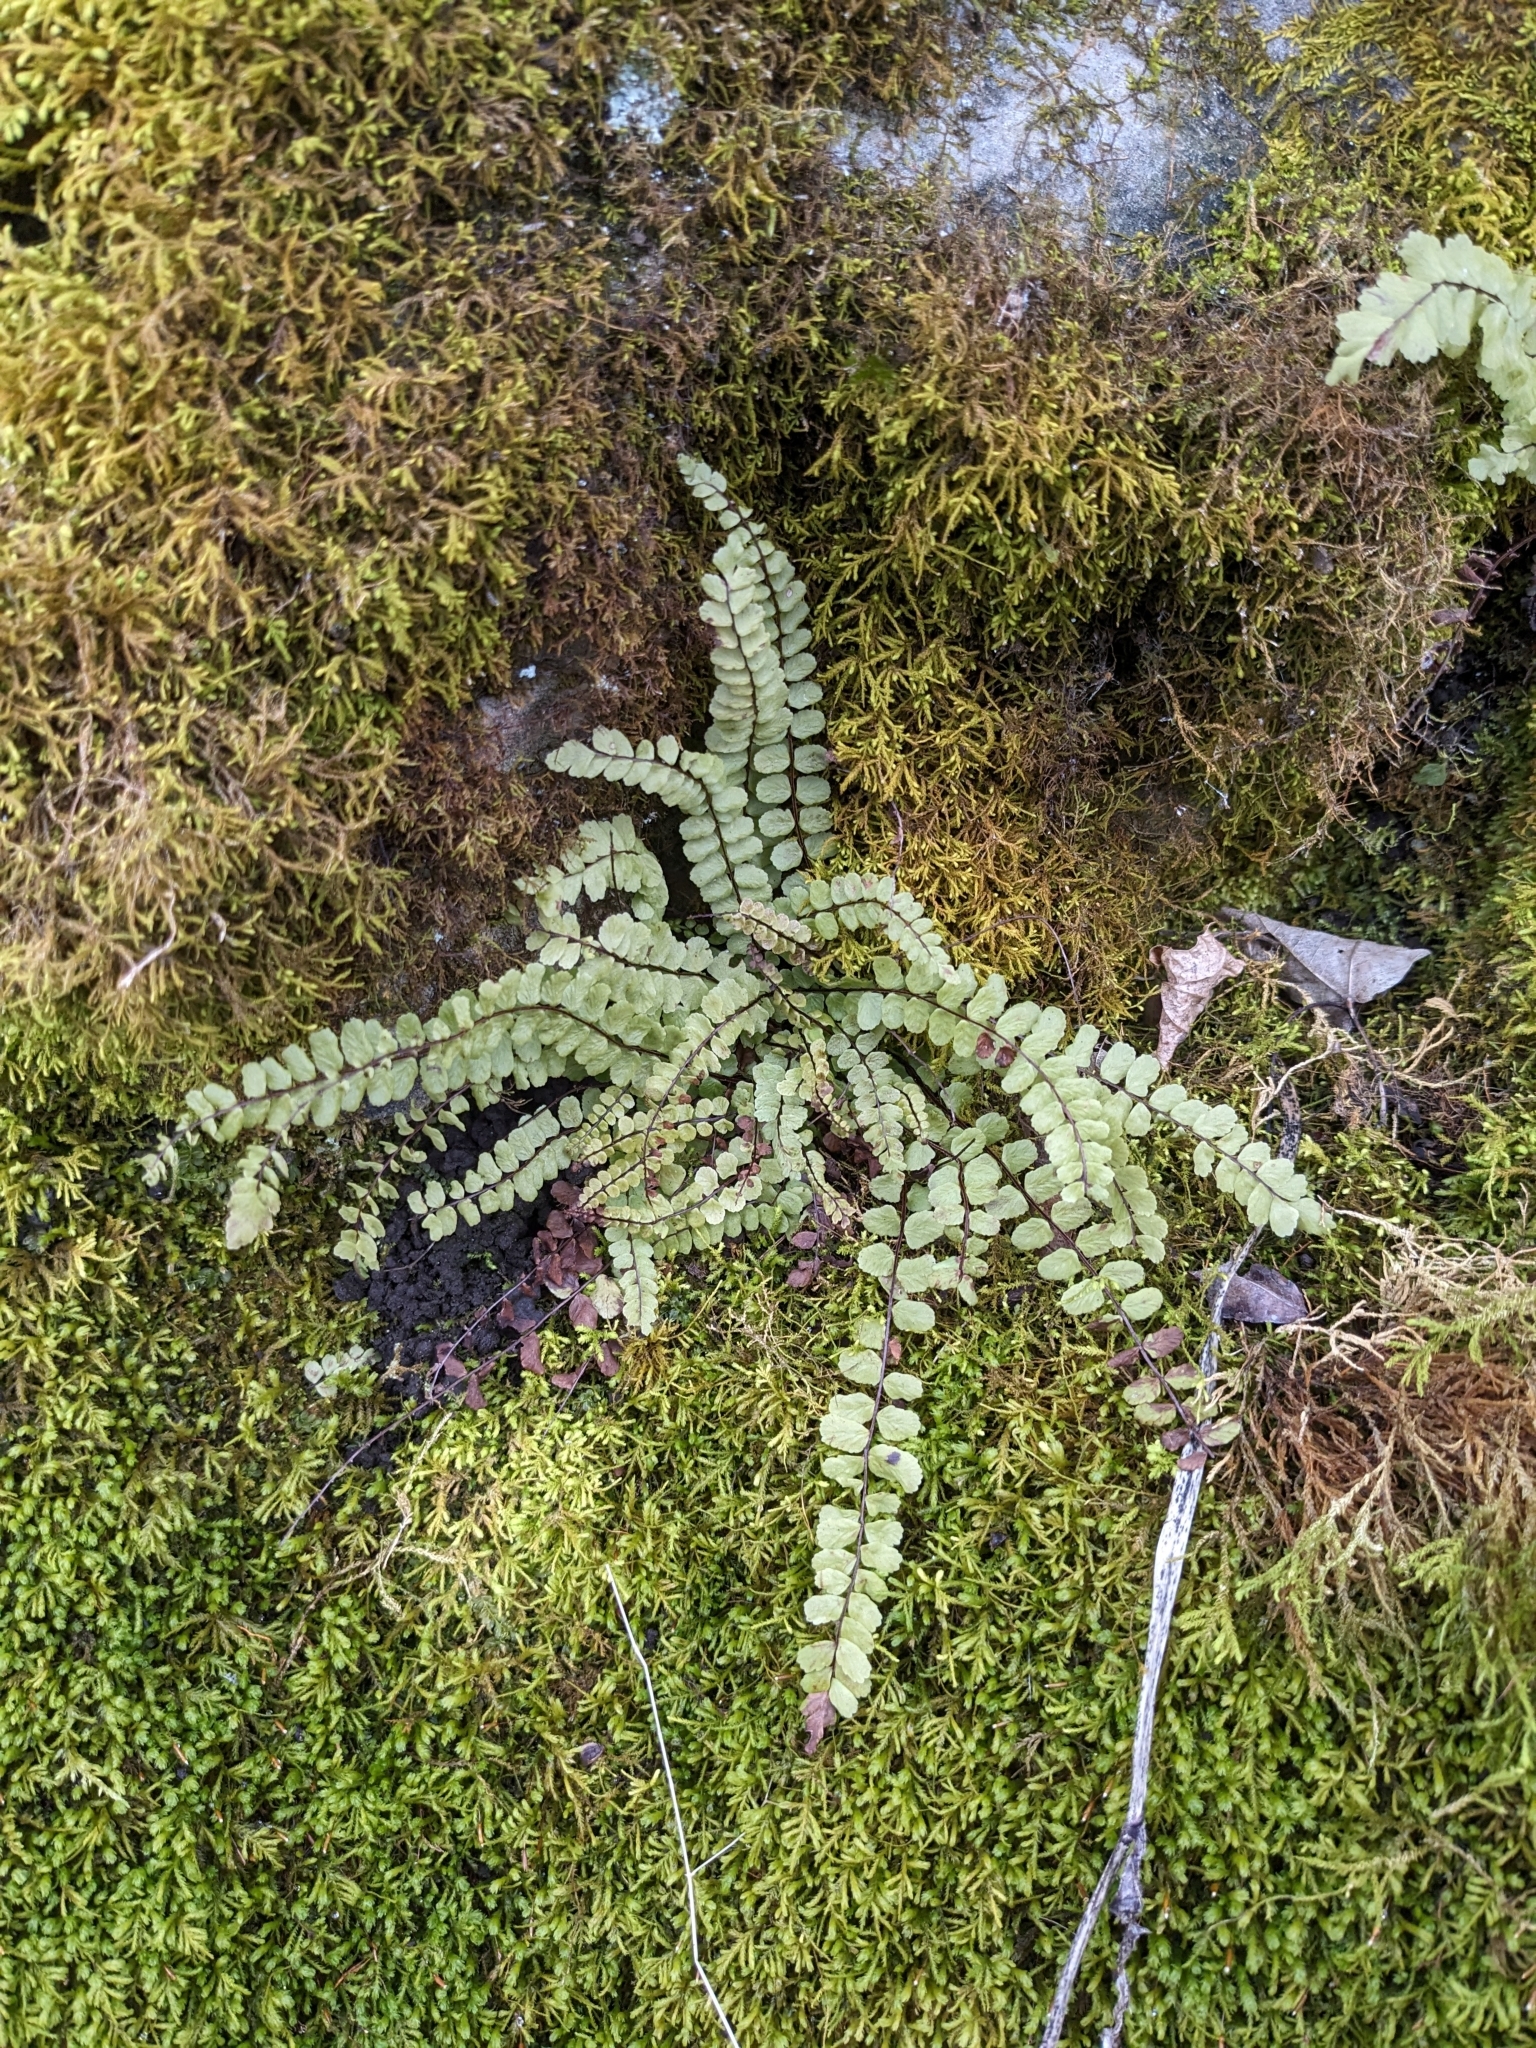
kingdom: Plantae
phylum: Tracheophyta
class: Polypodiopsida
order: Polypodiales
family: Aspleniaceae
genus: Asplenium
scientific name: Asplenium trichomanes
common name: Maidenhair spleenwort
